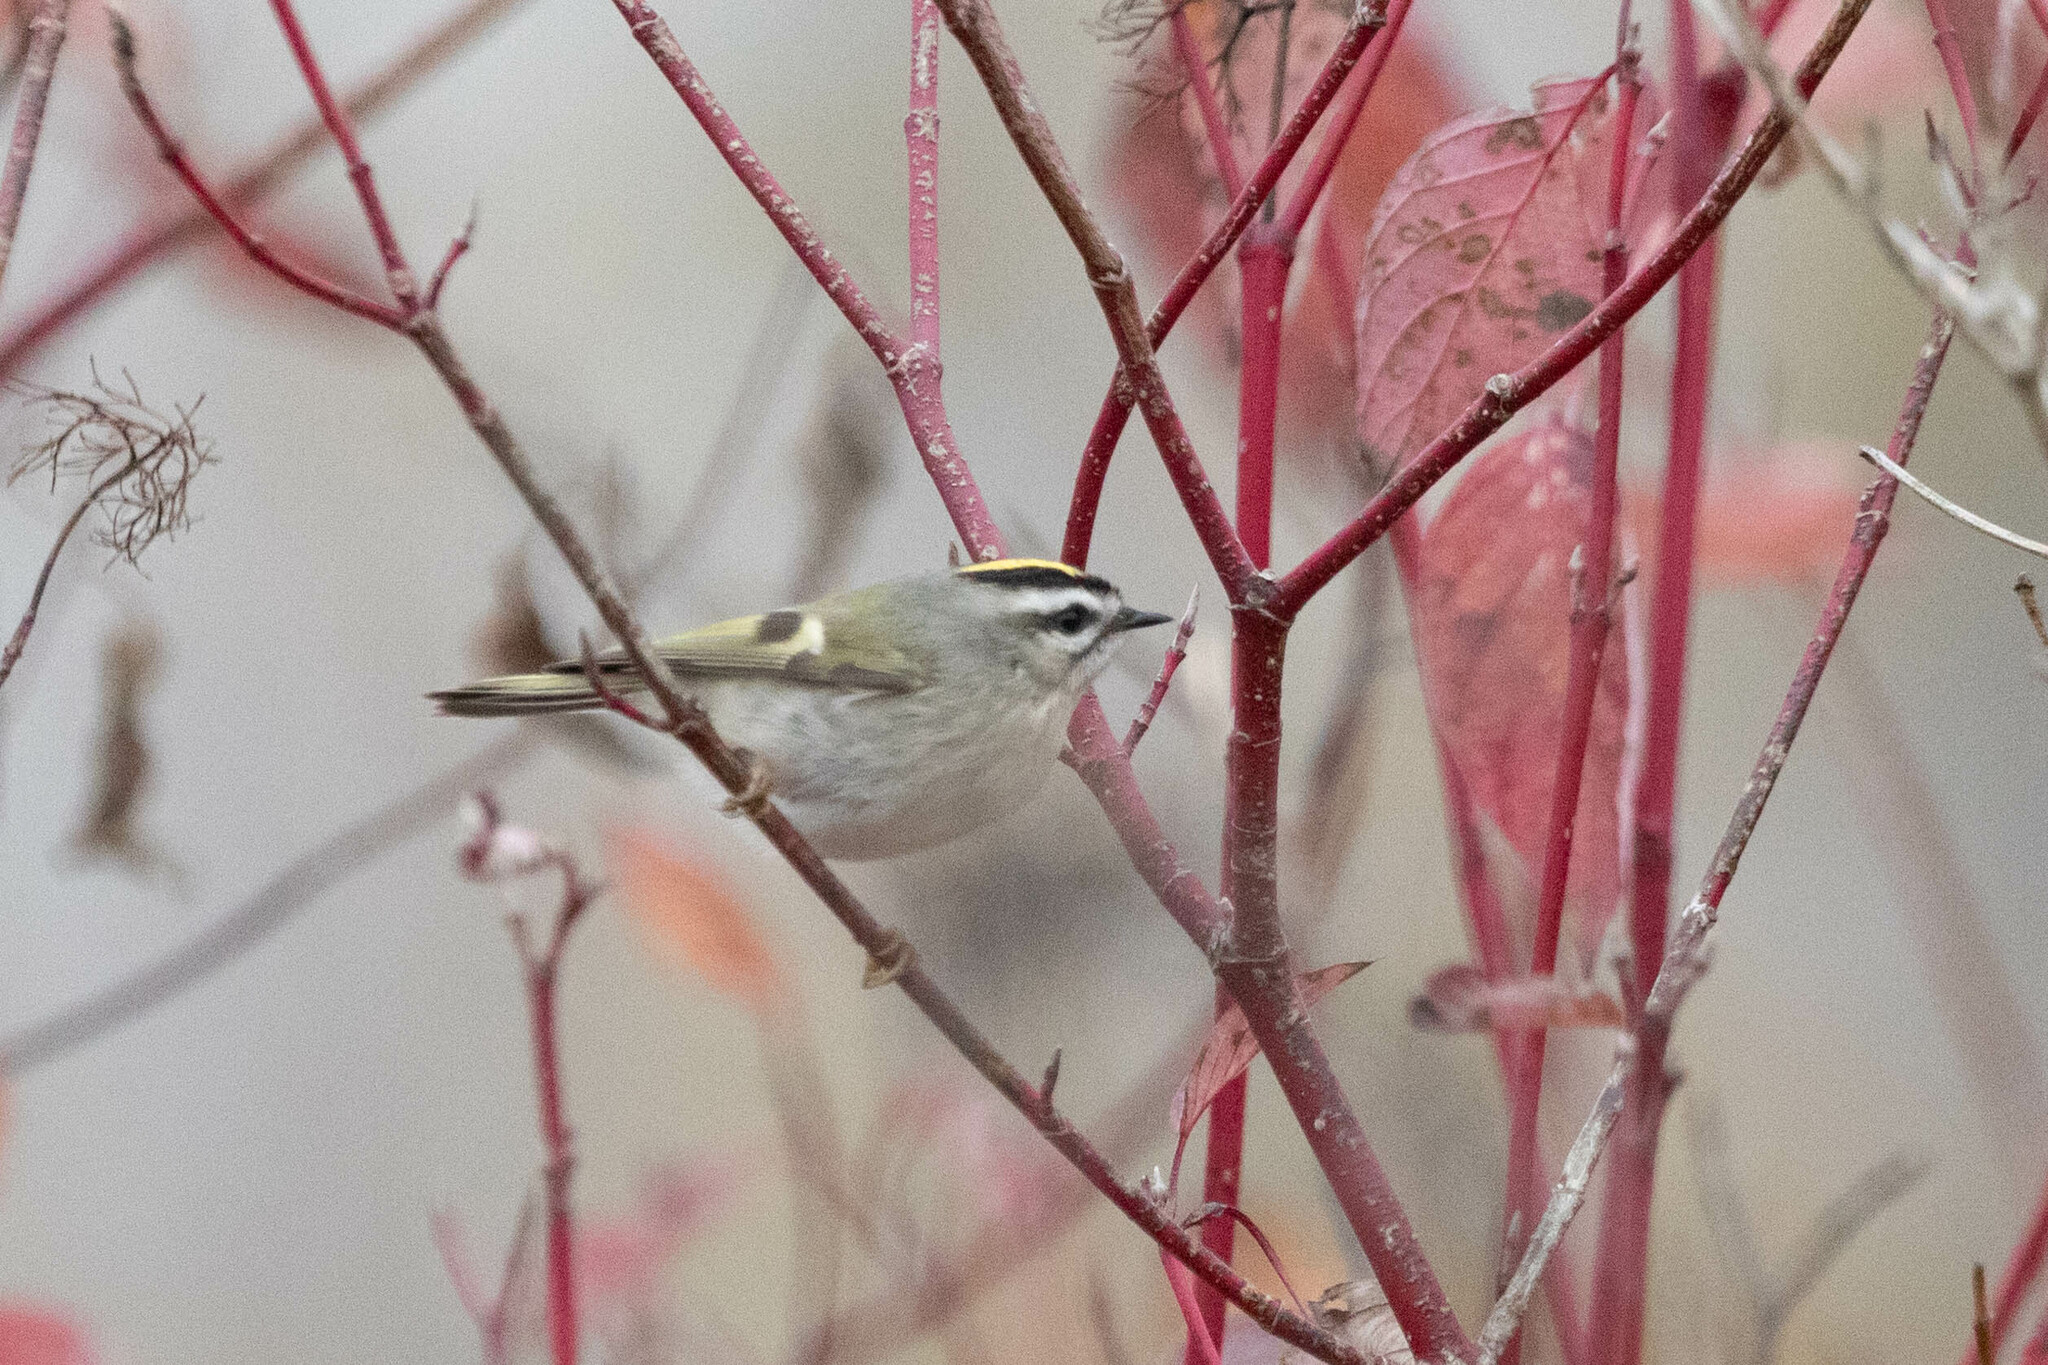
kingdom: Animalia
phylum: Chordata
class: Aves
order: Passeriformes
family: Regulidae
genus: Regulus
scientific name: Regulus satrapa
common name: Golden-crowned kinglet
